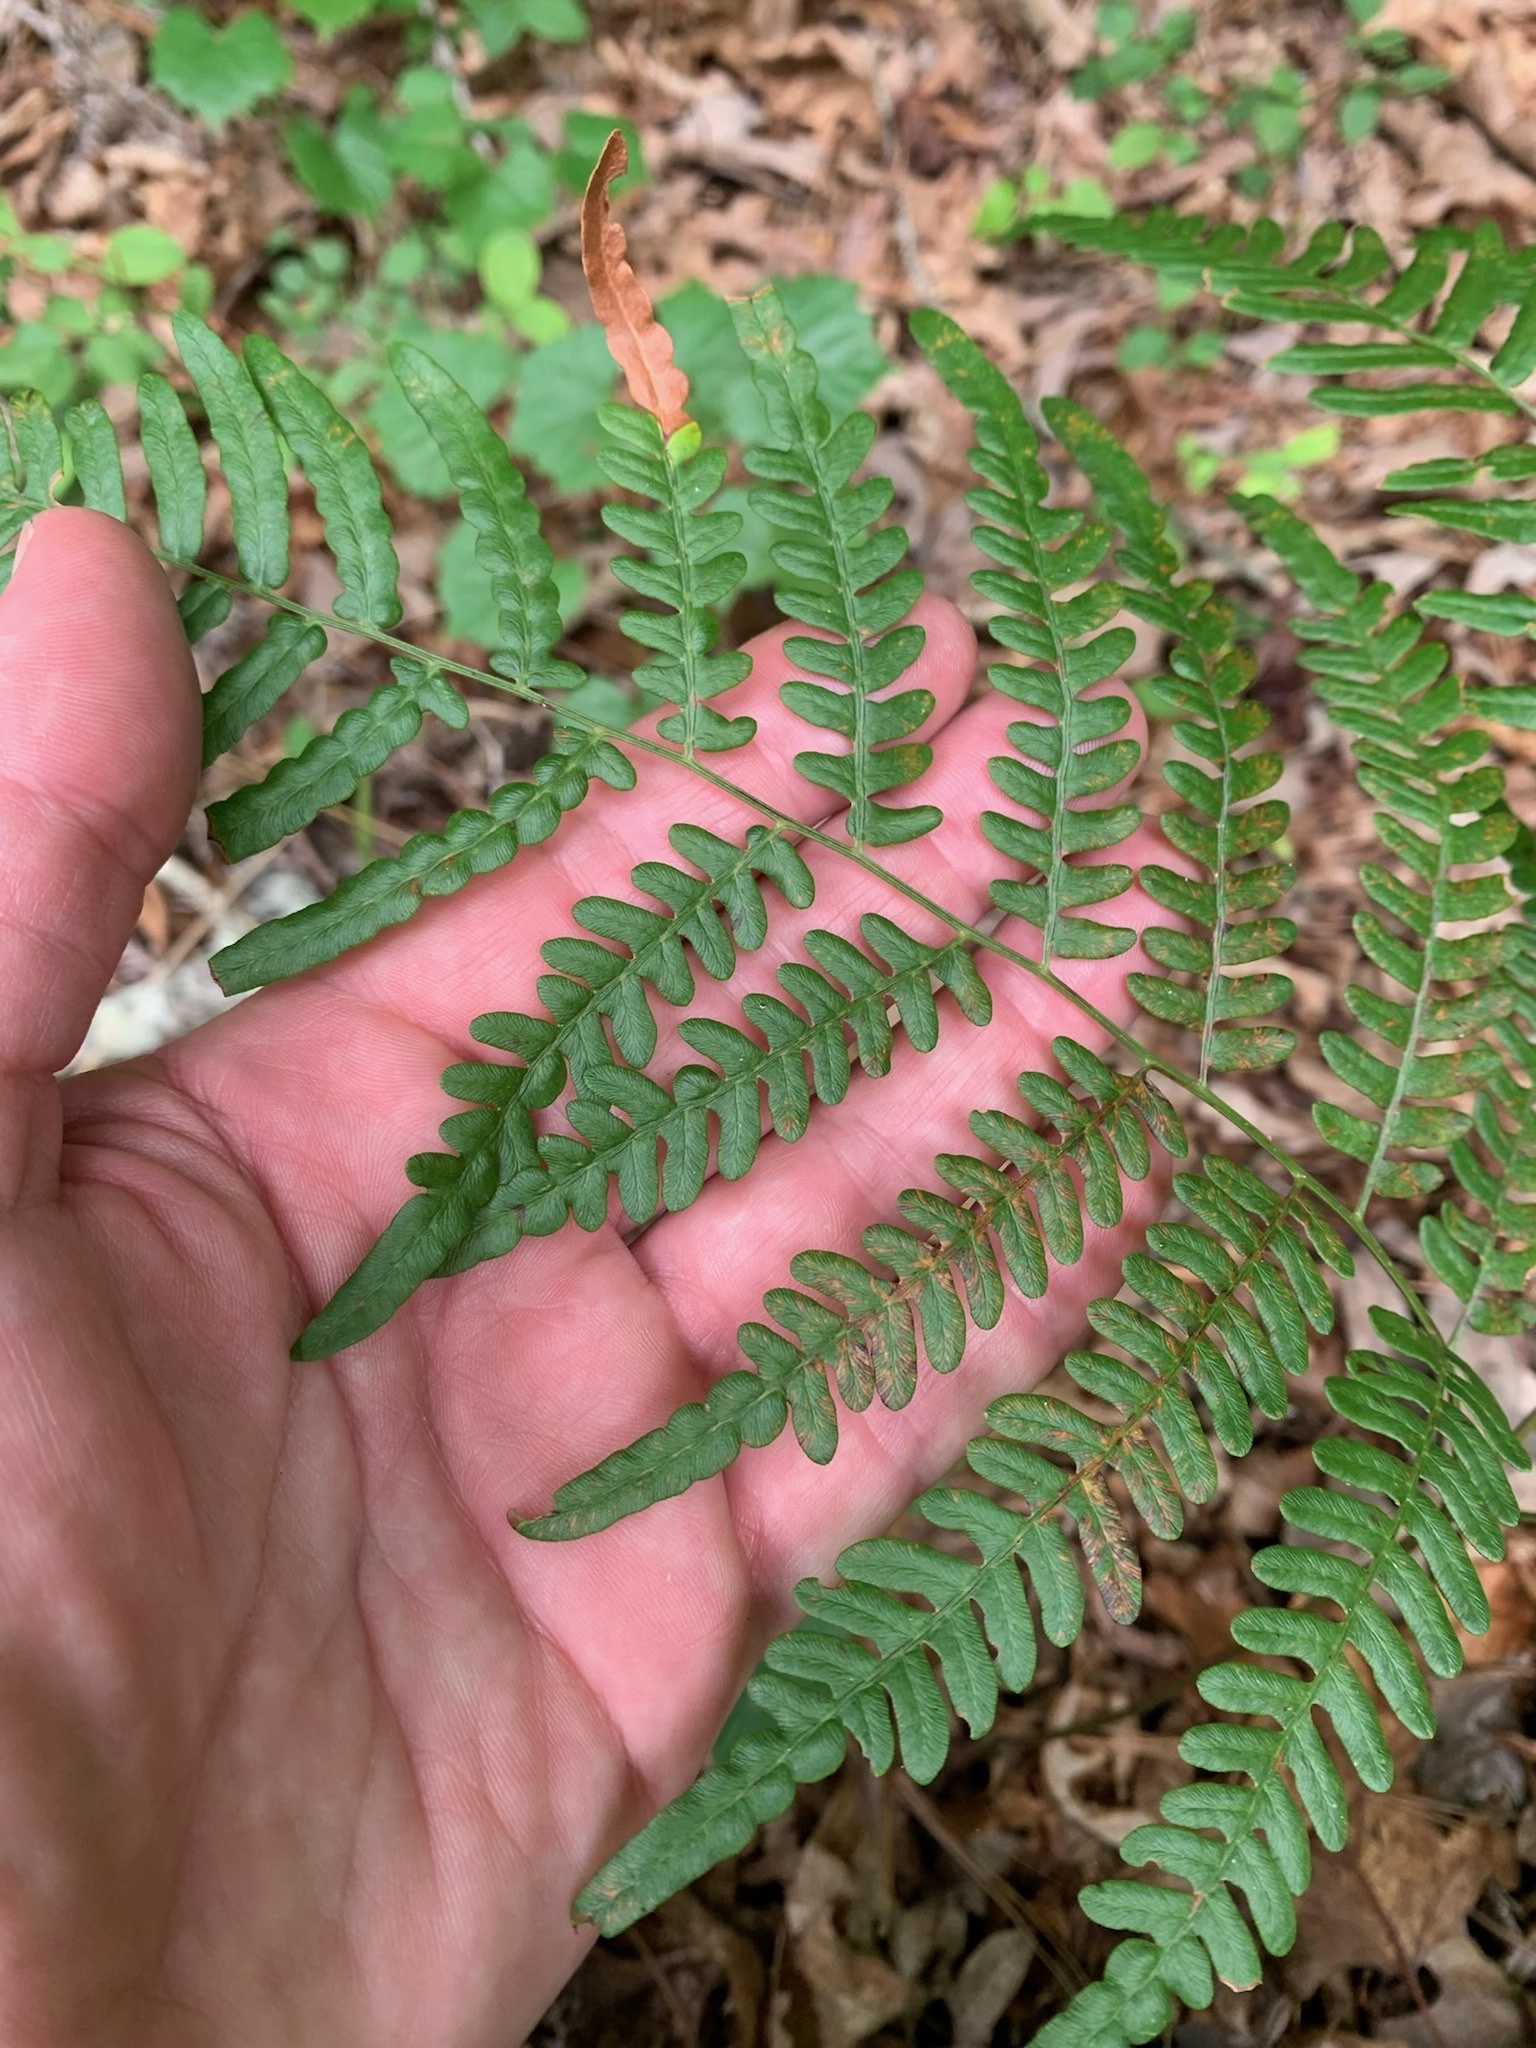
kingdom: Plantae
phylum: Tracheophyta
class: Polypodiopsida
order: Polypodiales
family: Dennstaedtiaceae
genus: Pteridium
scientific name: Pteridium aquilinum
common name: Bracken
